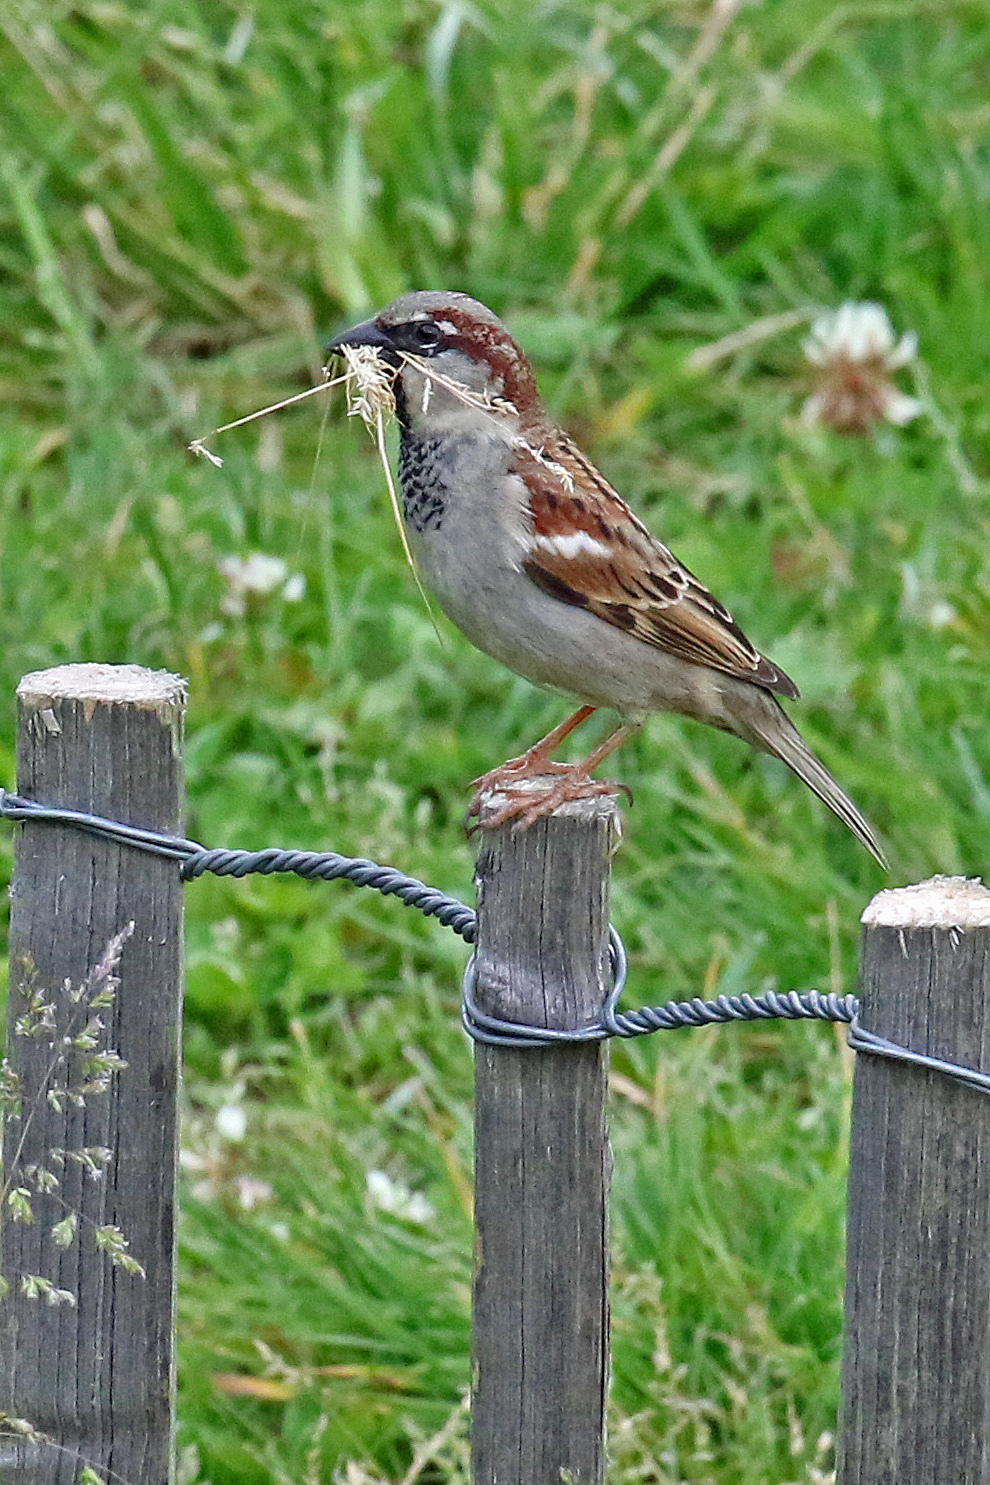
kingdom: Animalia
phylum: Chordata
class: Aves
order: Passeriformes
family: Passeridae
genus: Passer
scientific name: Passer domesticus
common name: House sparrow
